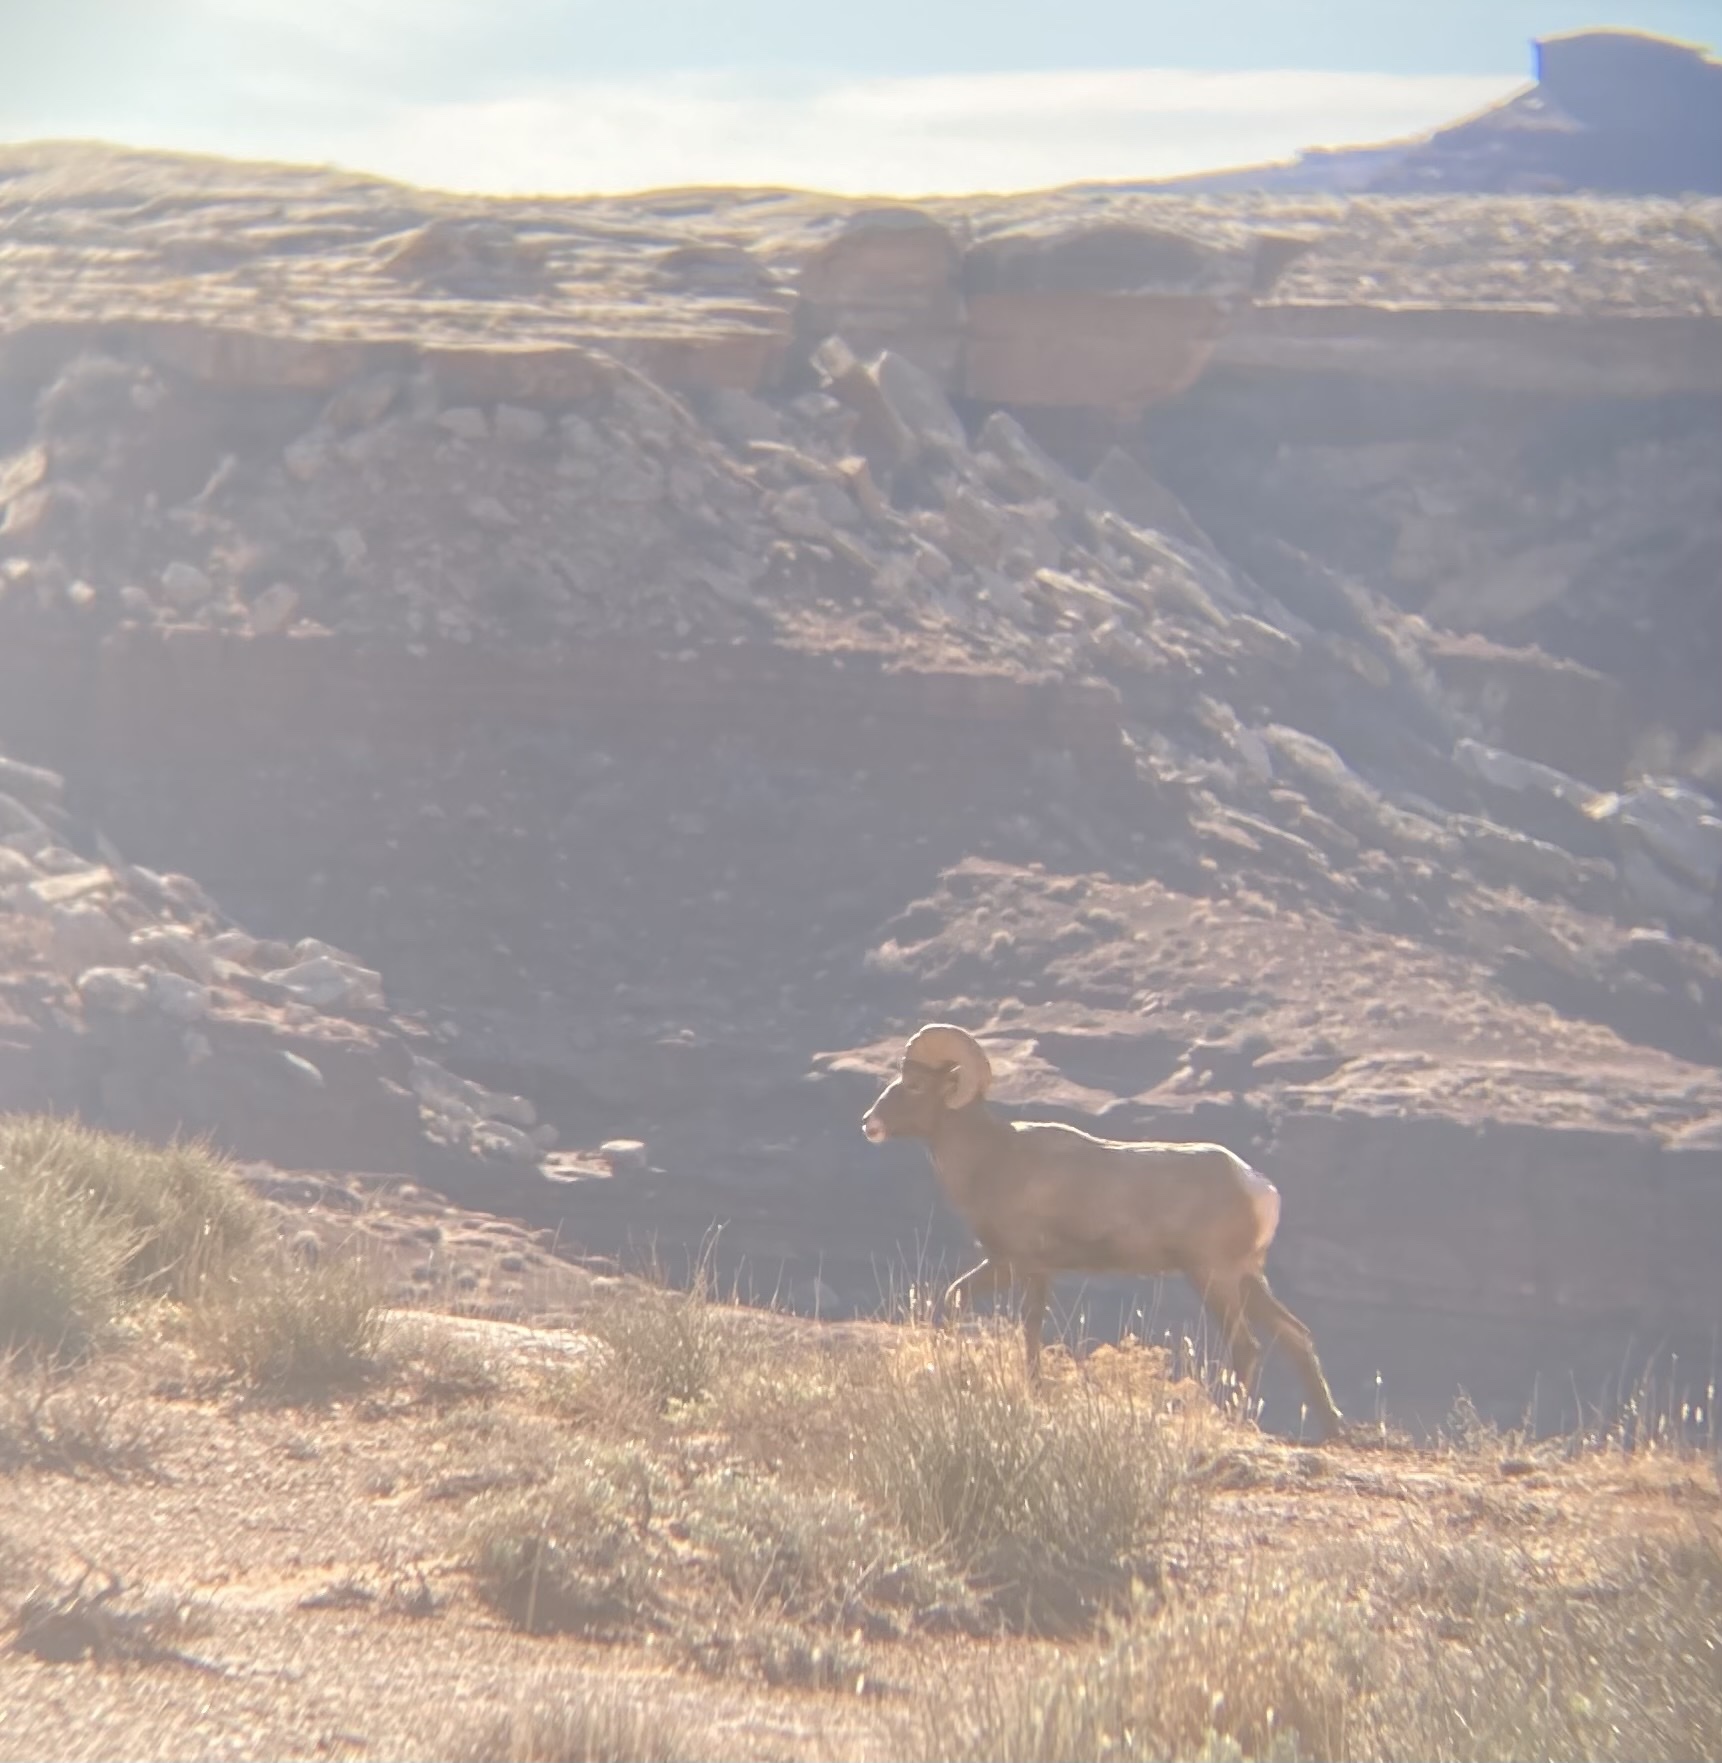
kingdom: Animalia
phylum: Chordata
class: Mammalia
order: Artiodactyla
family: Bovidae
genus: Ovis
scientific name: Ovis canadensis
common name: Bighorn sheep
